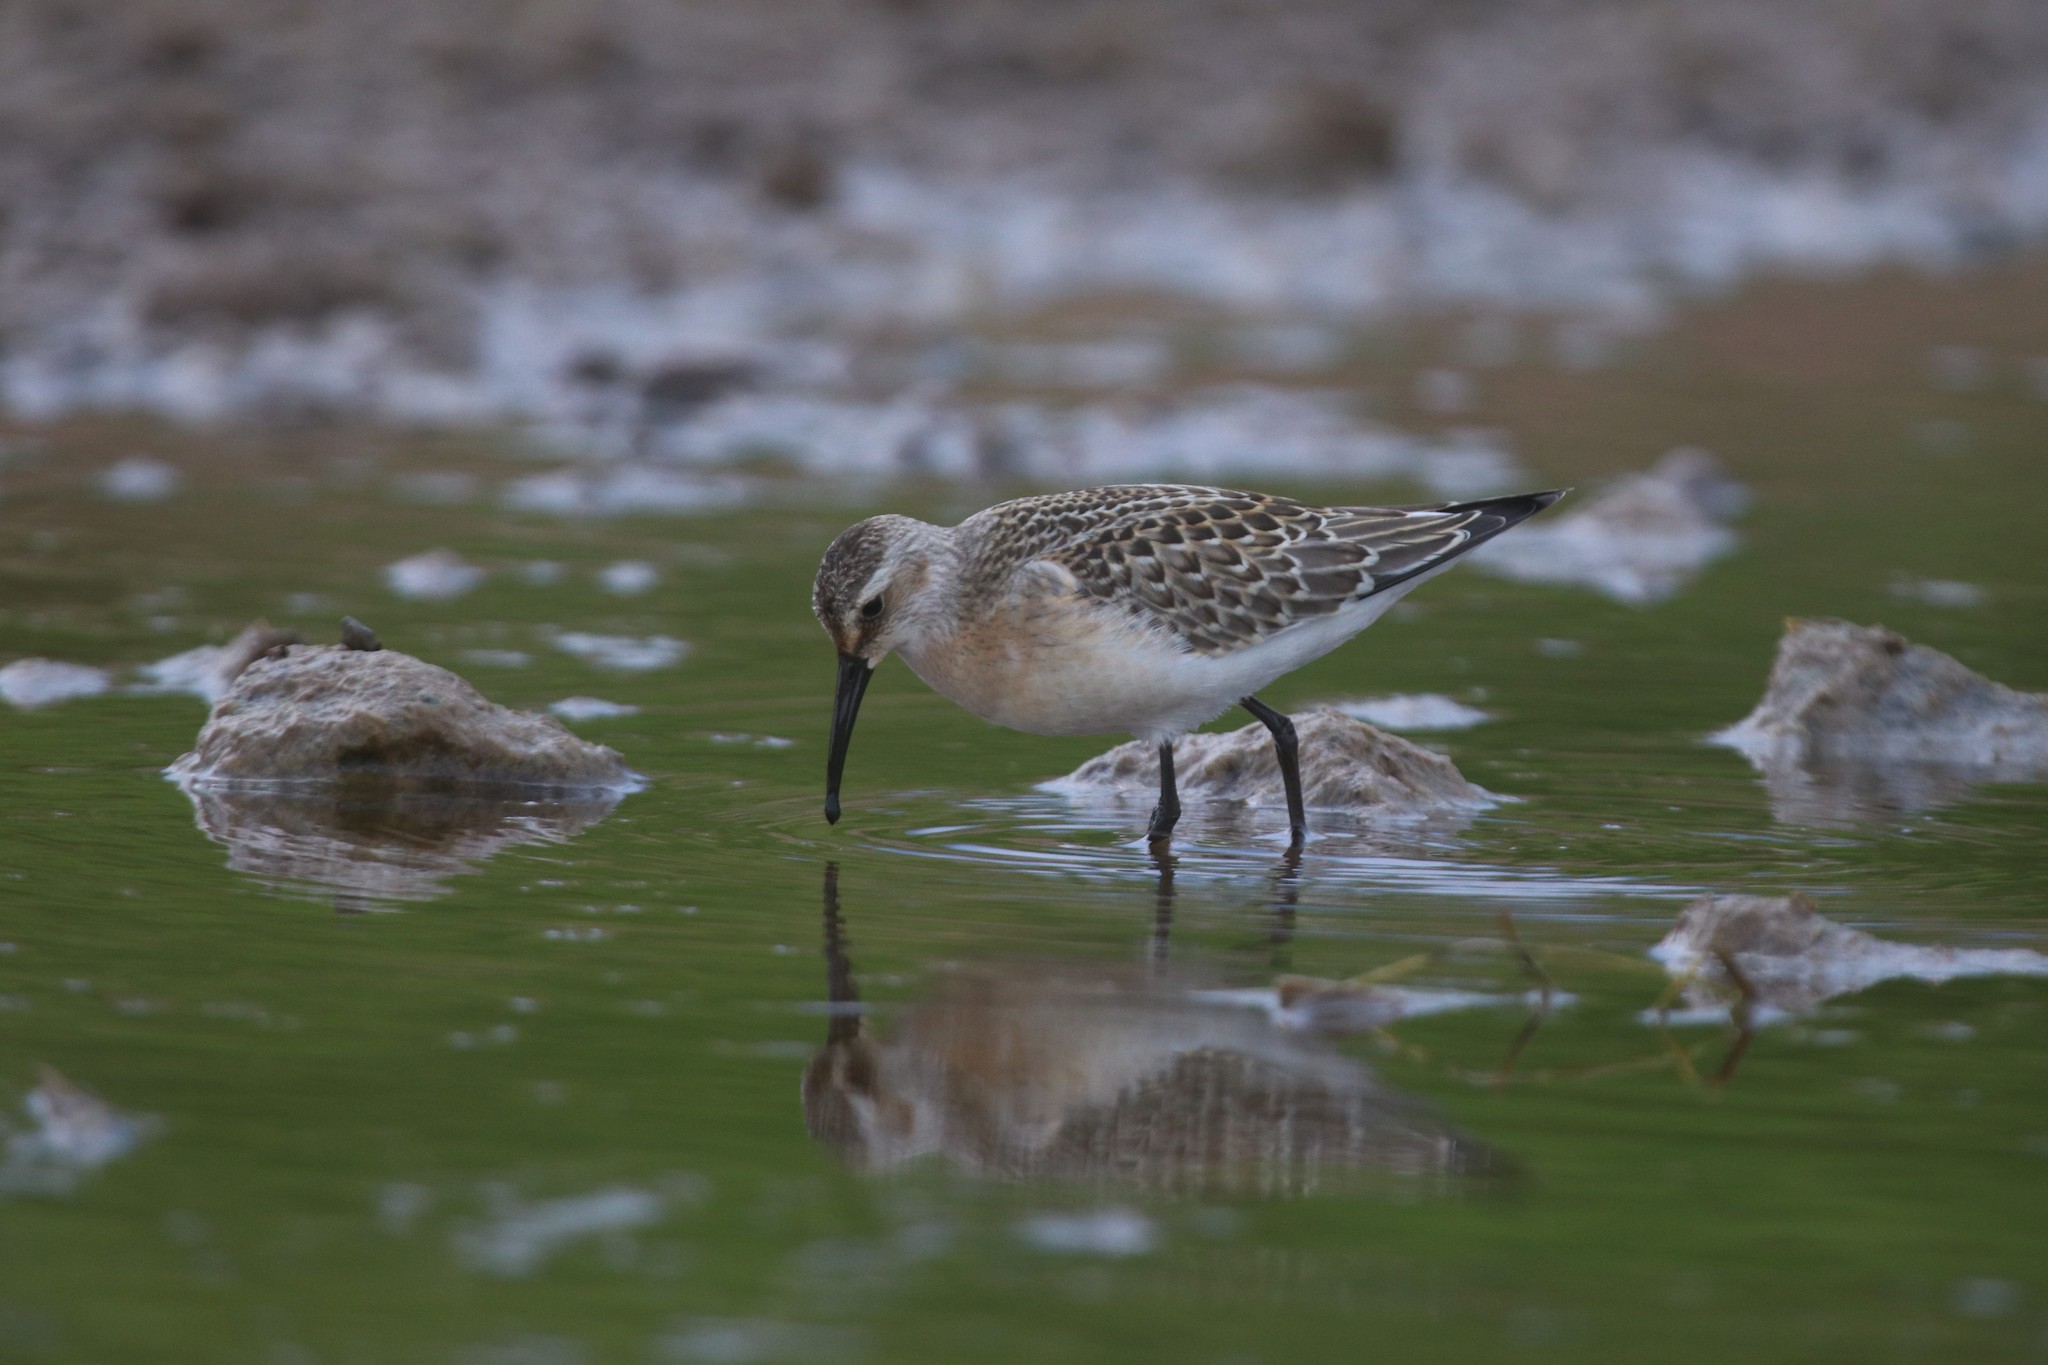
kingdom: Animalia
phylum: Chordata
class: Aves
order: Charadriiformes
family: Scolopacidae
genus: Calidris
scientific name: Calidris ferruginea
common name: Curlew sandpiper
